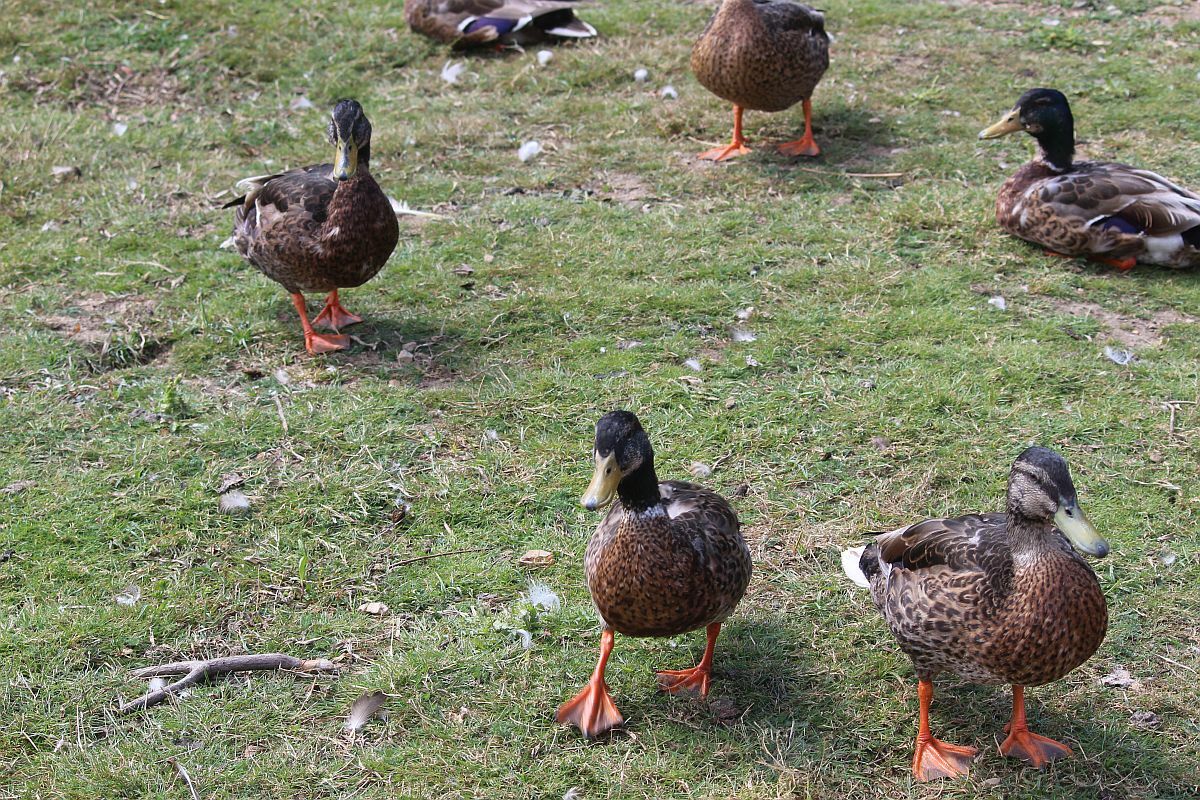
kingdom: Animalia
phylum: Chordata
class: Aves
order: Anseriformes
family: Anatidae
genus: Anas
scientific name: Anas platyrhynchos
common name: Mallard
